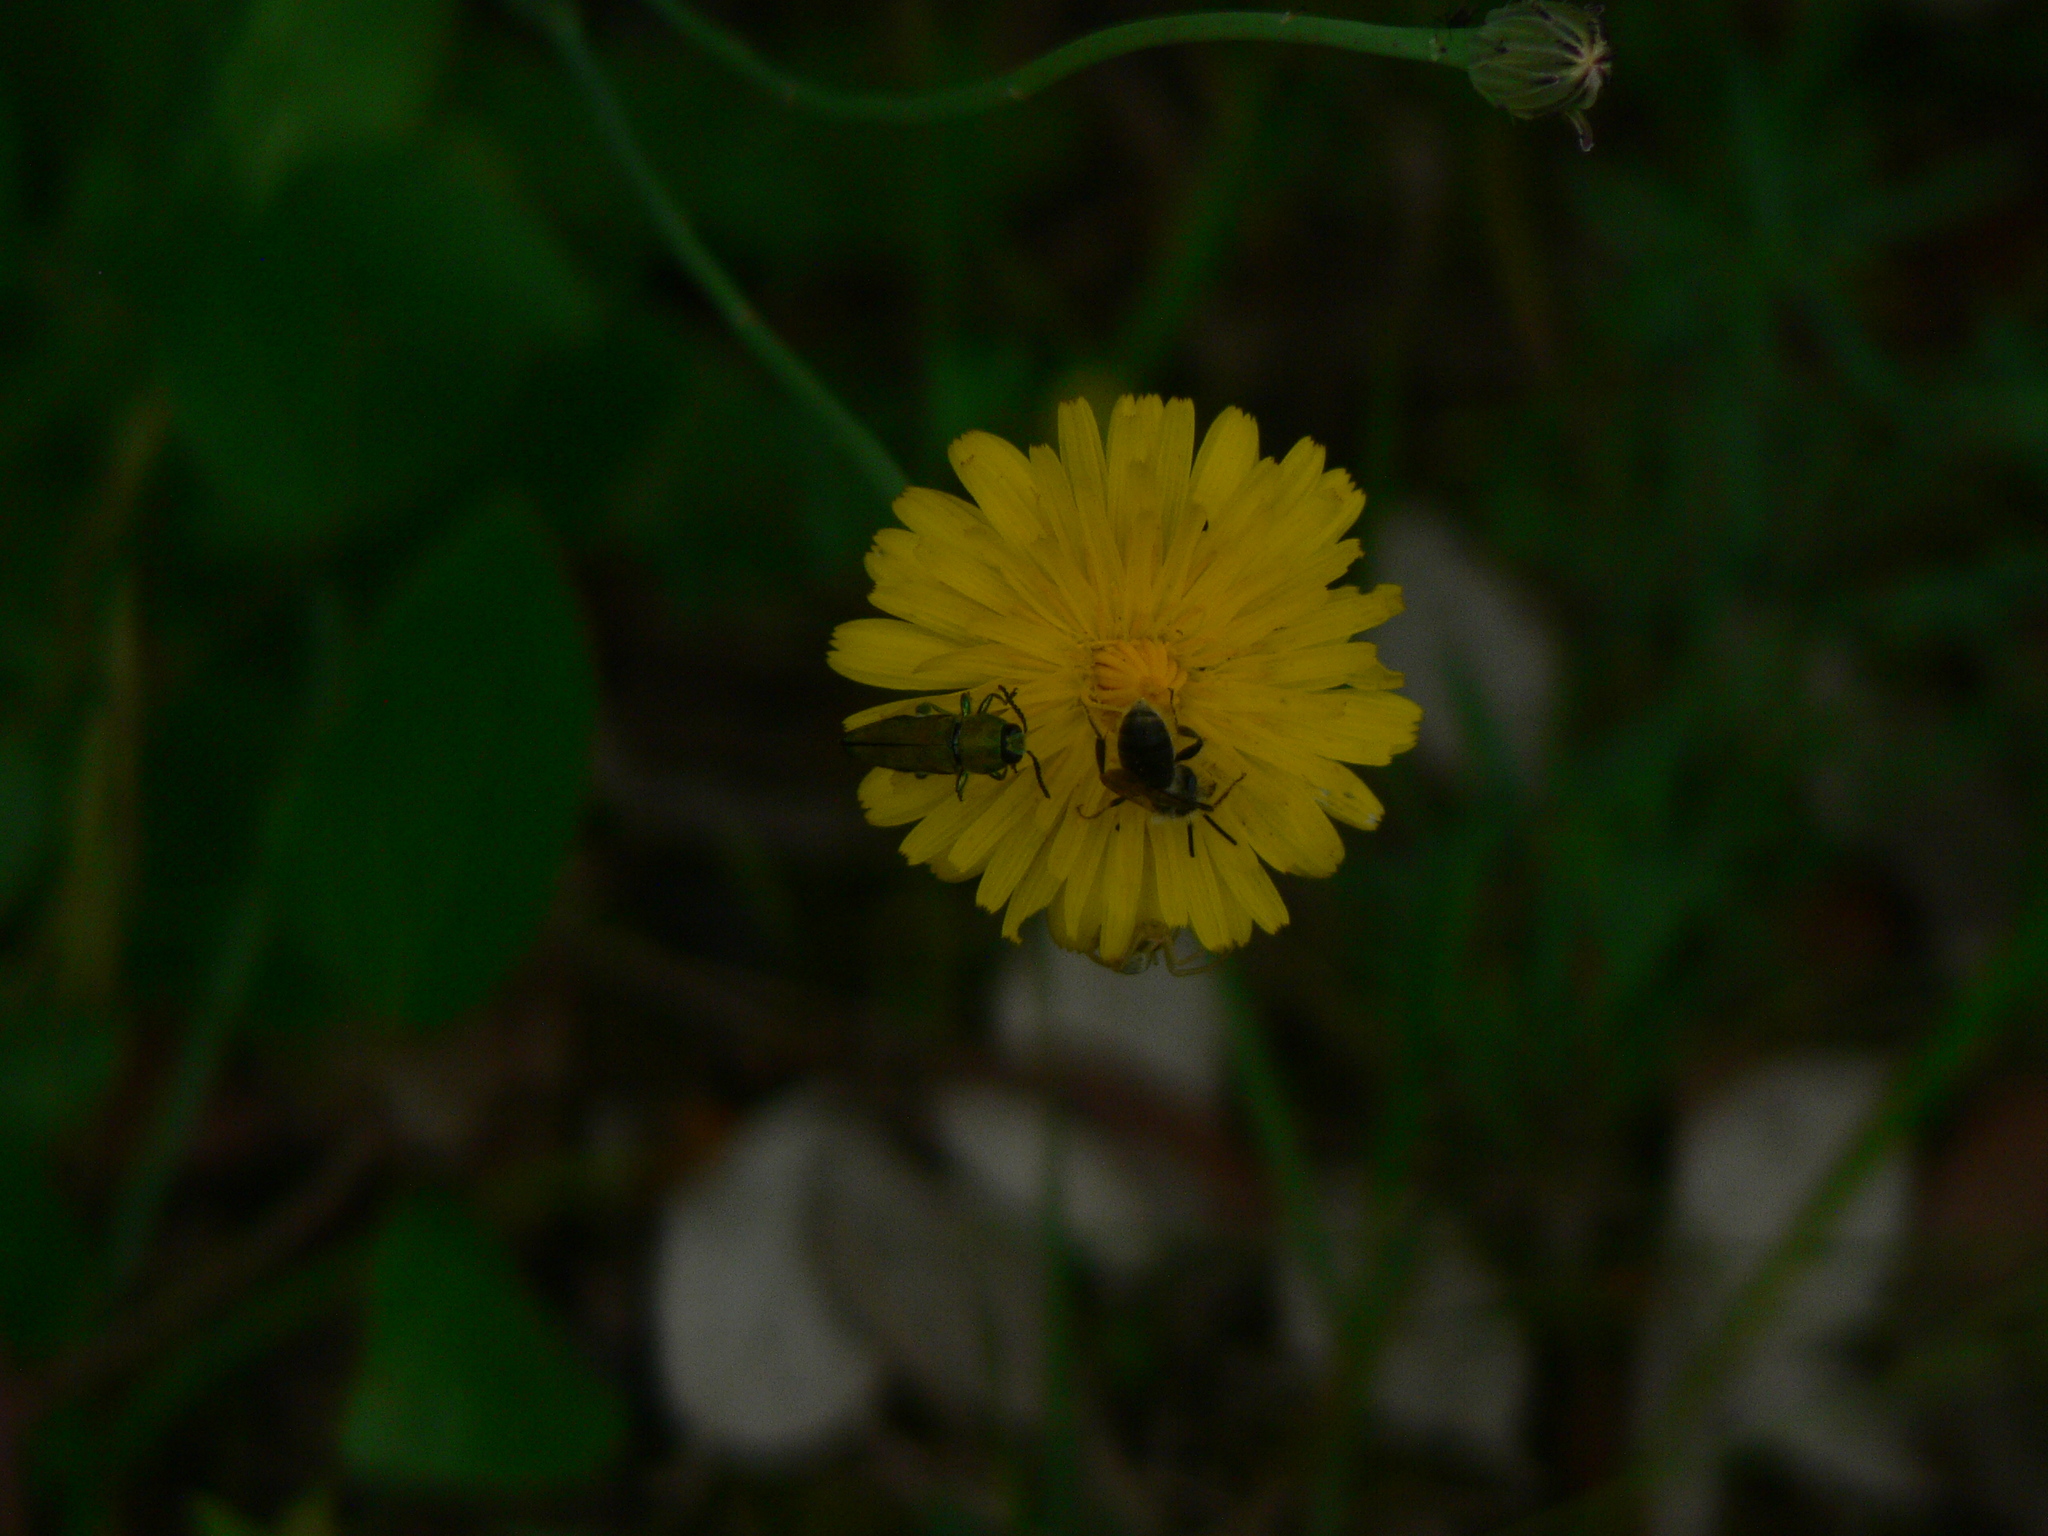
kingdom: Animalia
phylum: Arthropoda
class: Insecta
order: Coleoptera
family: Buprestidae
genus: Anthaxia
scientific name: Anthaxia hungarica
